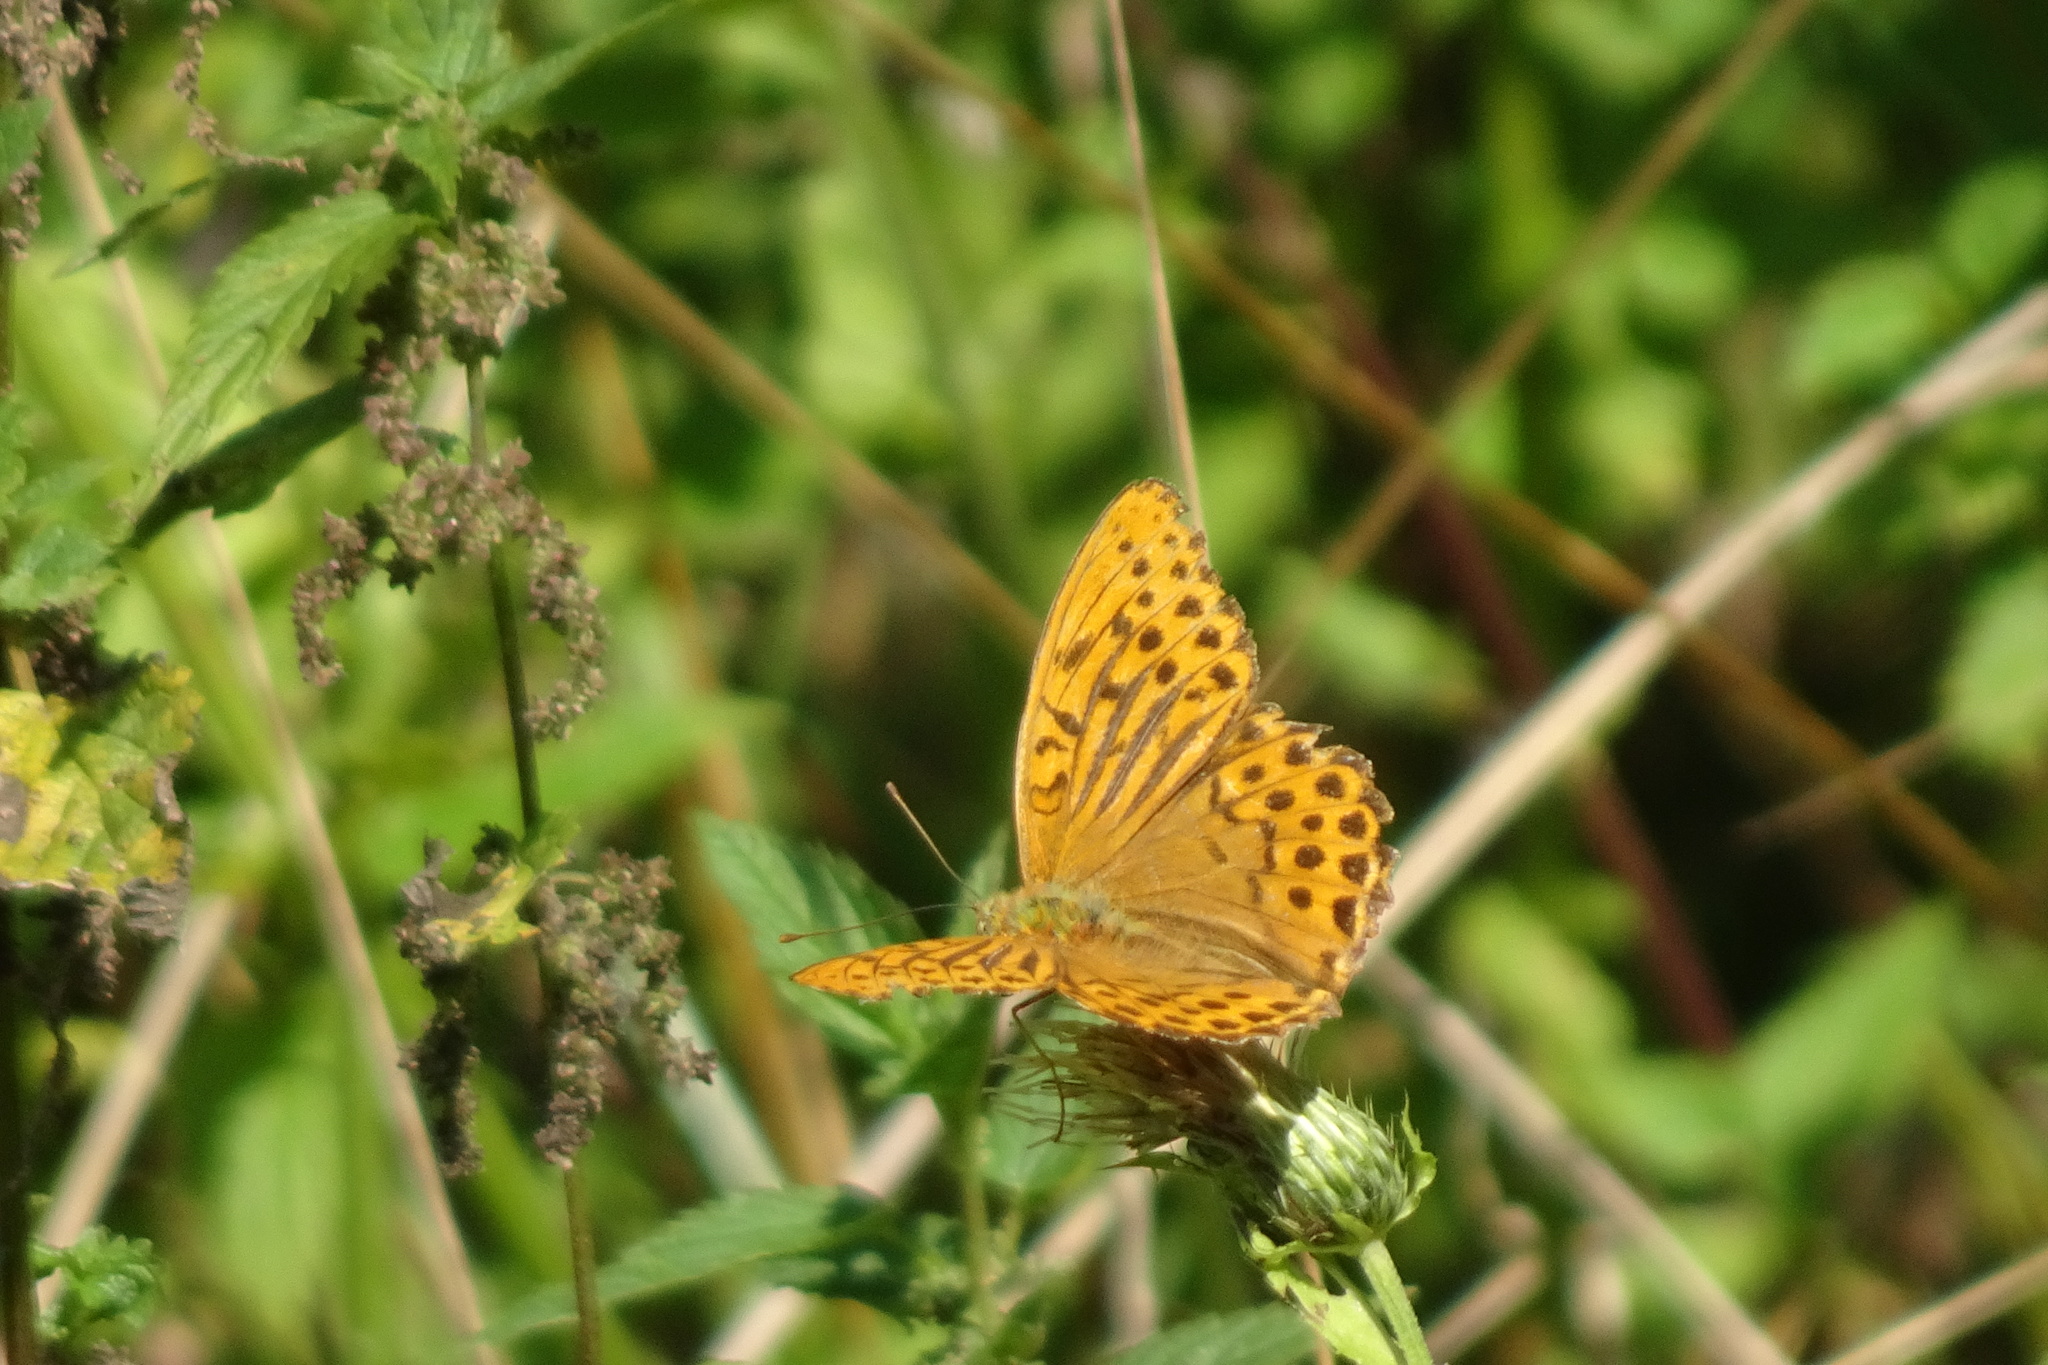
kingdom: Animalia
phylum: Arthropoda
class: Insecta
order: Lepidoptera
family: Nymphalidae
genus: Argynnis
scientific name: Argynnis paphia
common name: Silver-washed fritillary
